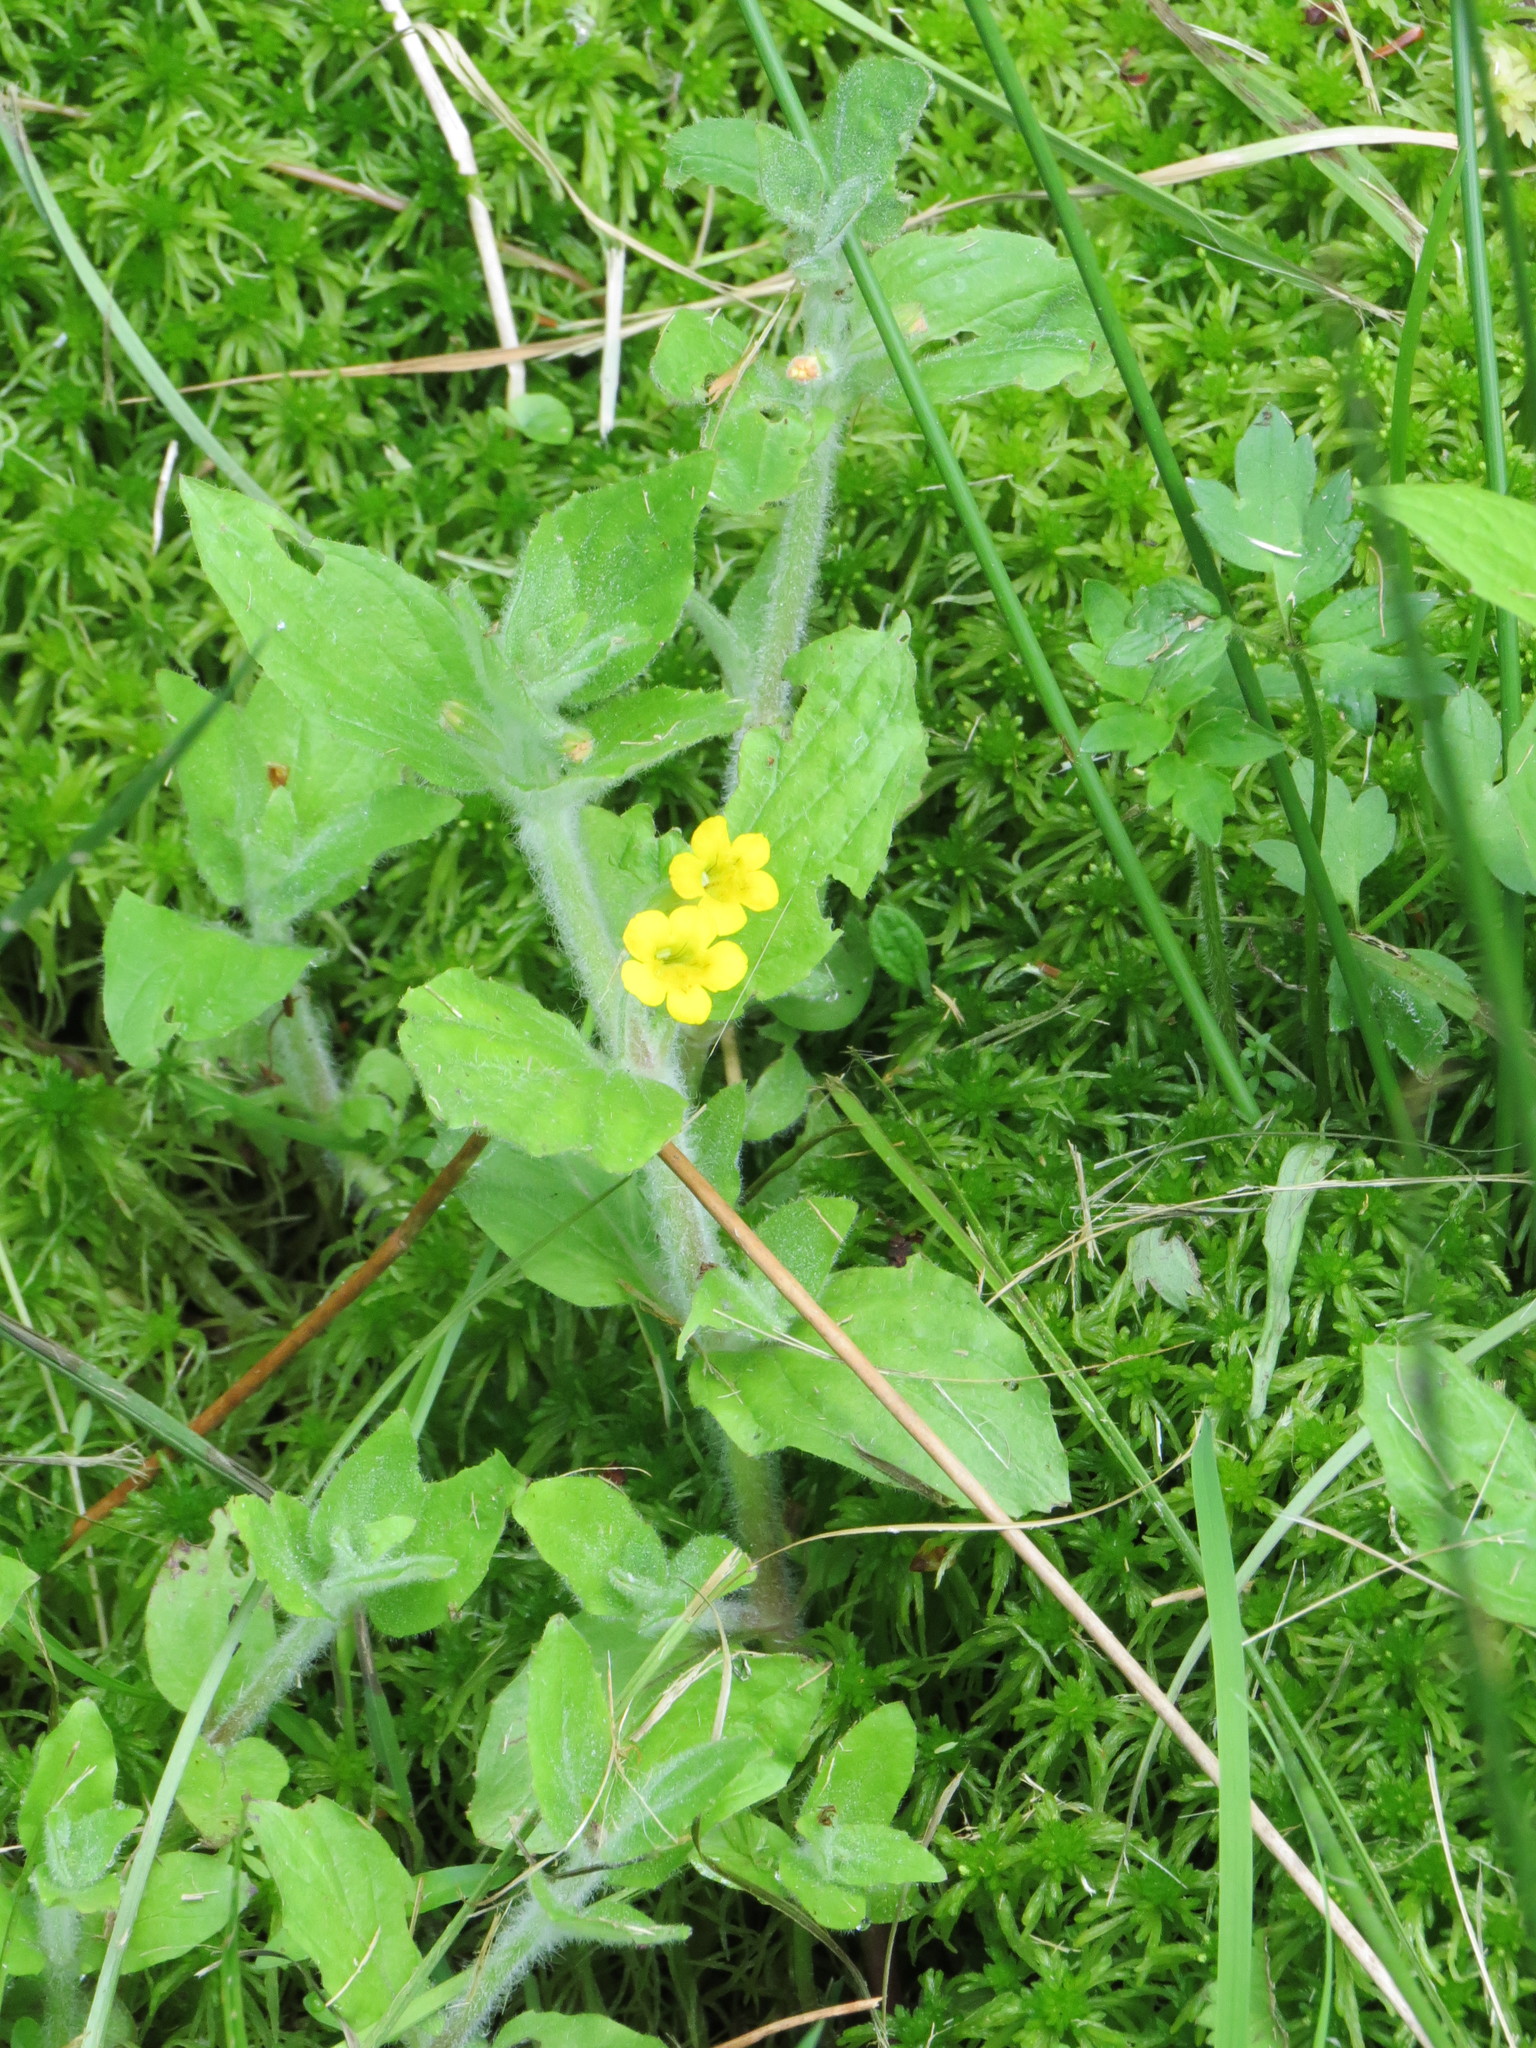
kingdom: Plantae
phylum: Tracheophyta
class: Magnoliopsida
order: Lamiales
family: Phrymaceae
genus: Erythranthe
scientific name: Erythranthe moschata
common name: Muskflower
